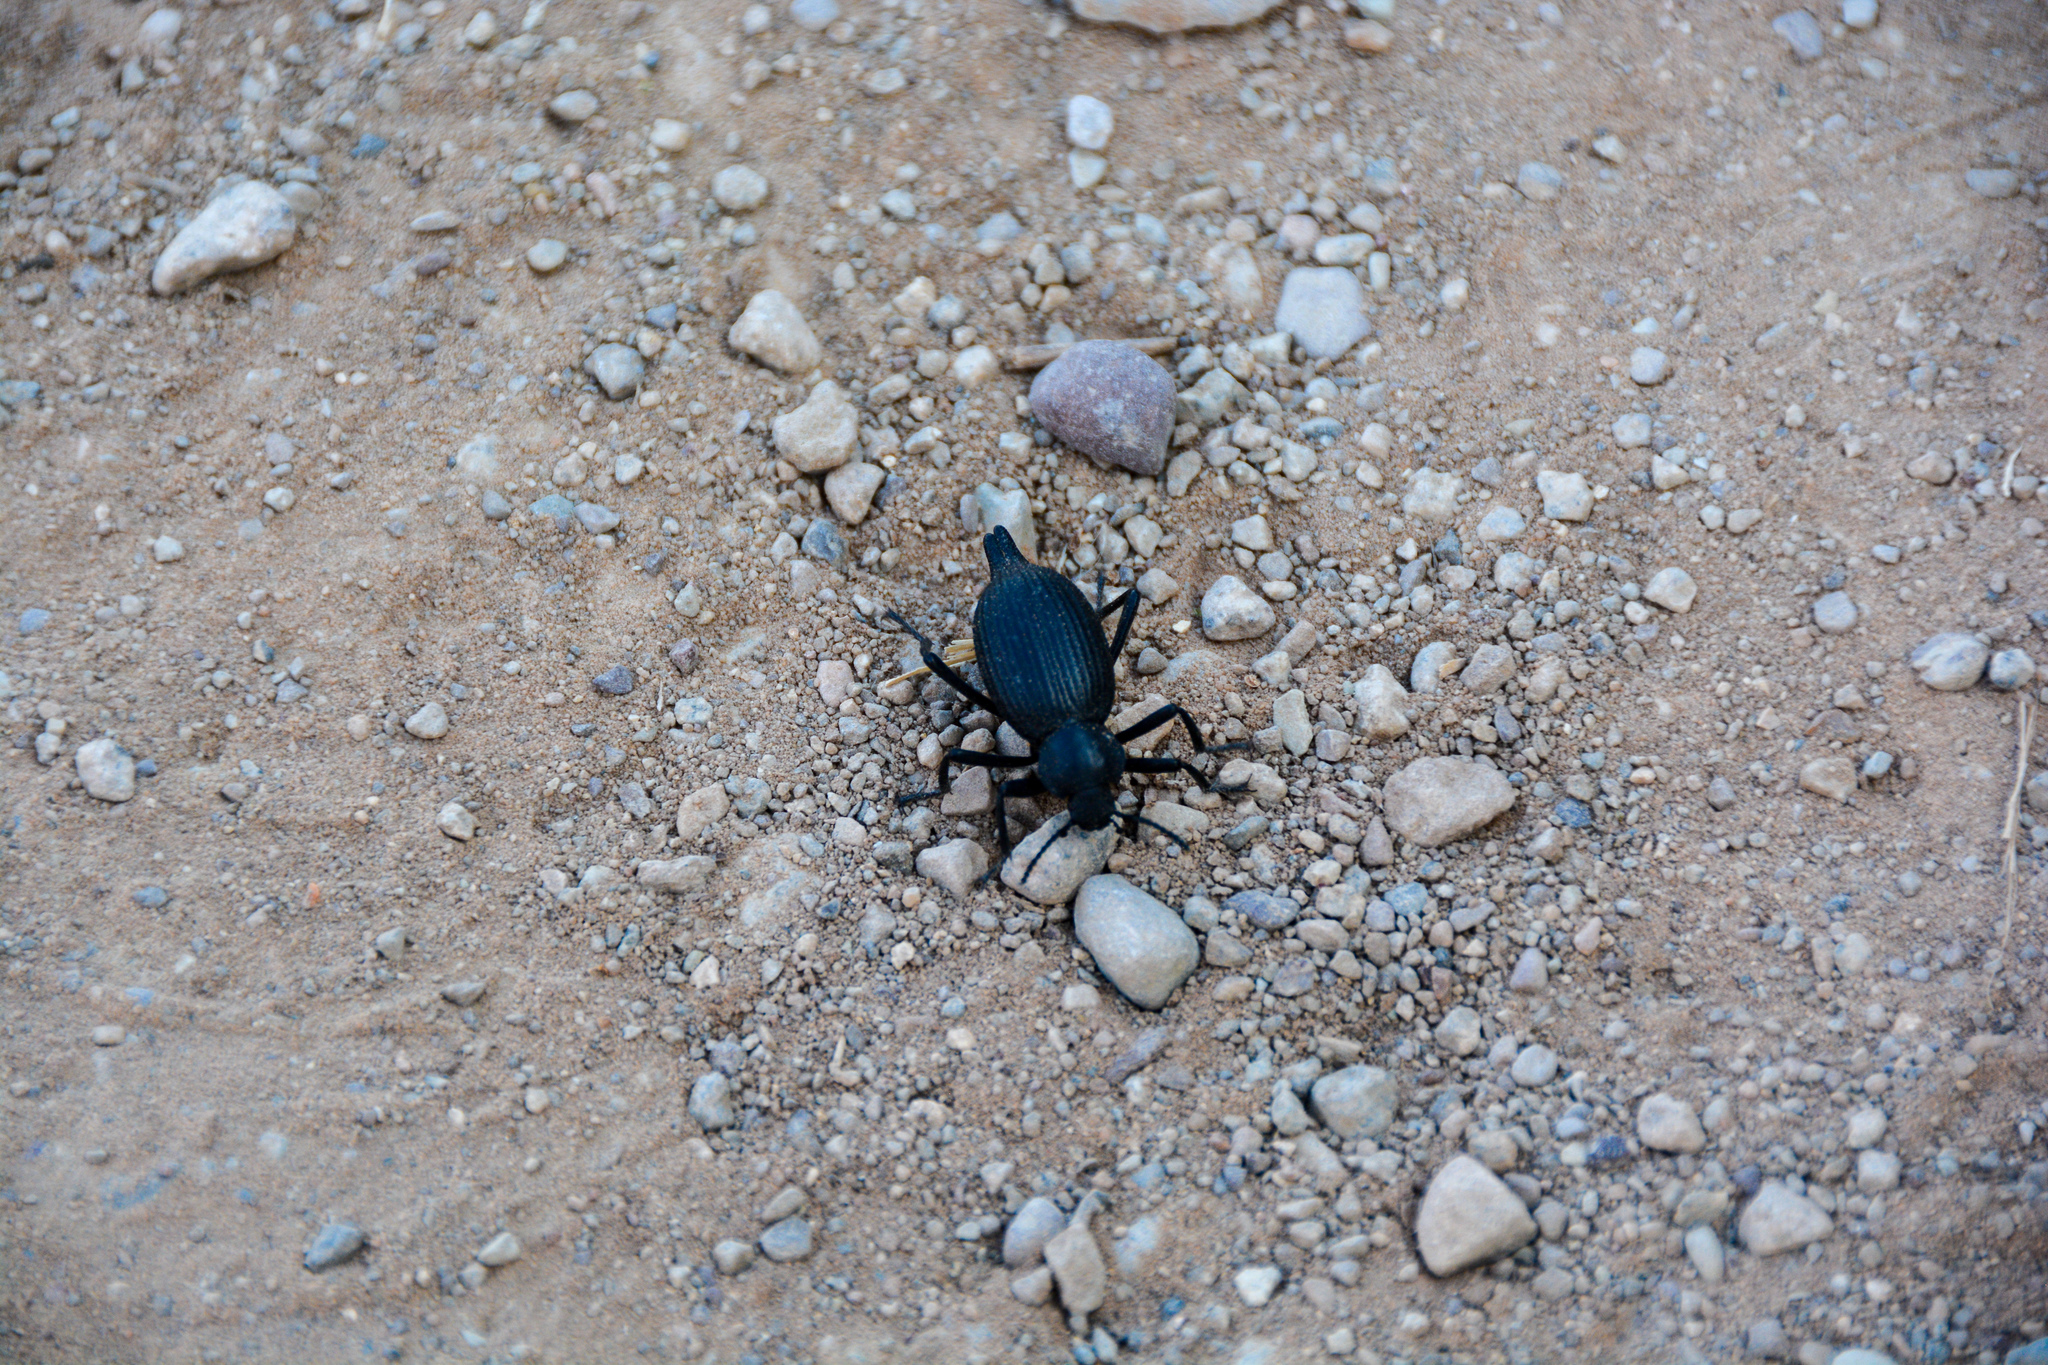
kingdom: Animalia
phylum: Arthropoda
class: Insecta
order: Coleoptera
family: Tenebrionidae
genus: Eleodes
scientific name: Eleodes caudifera
